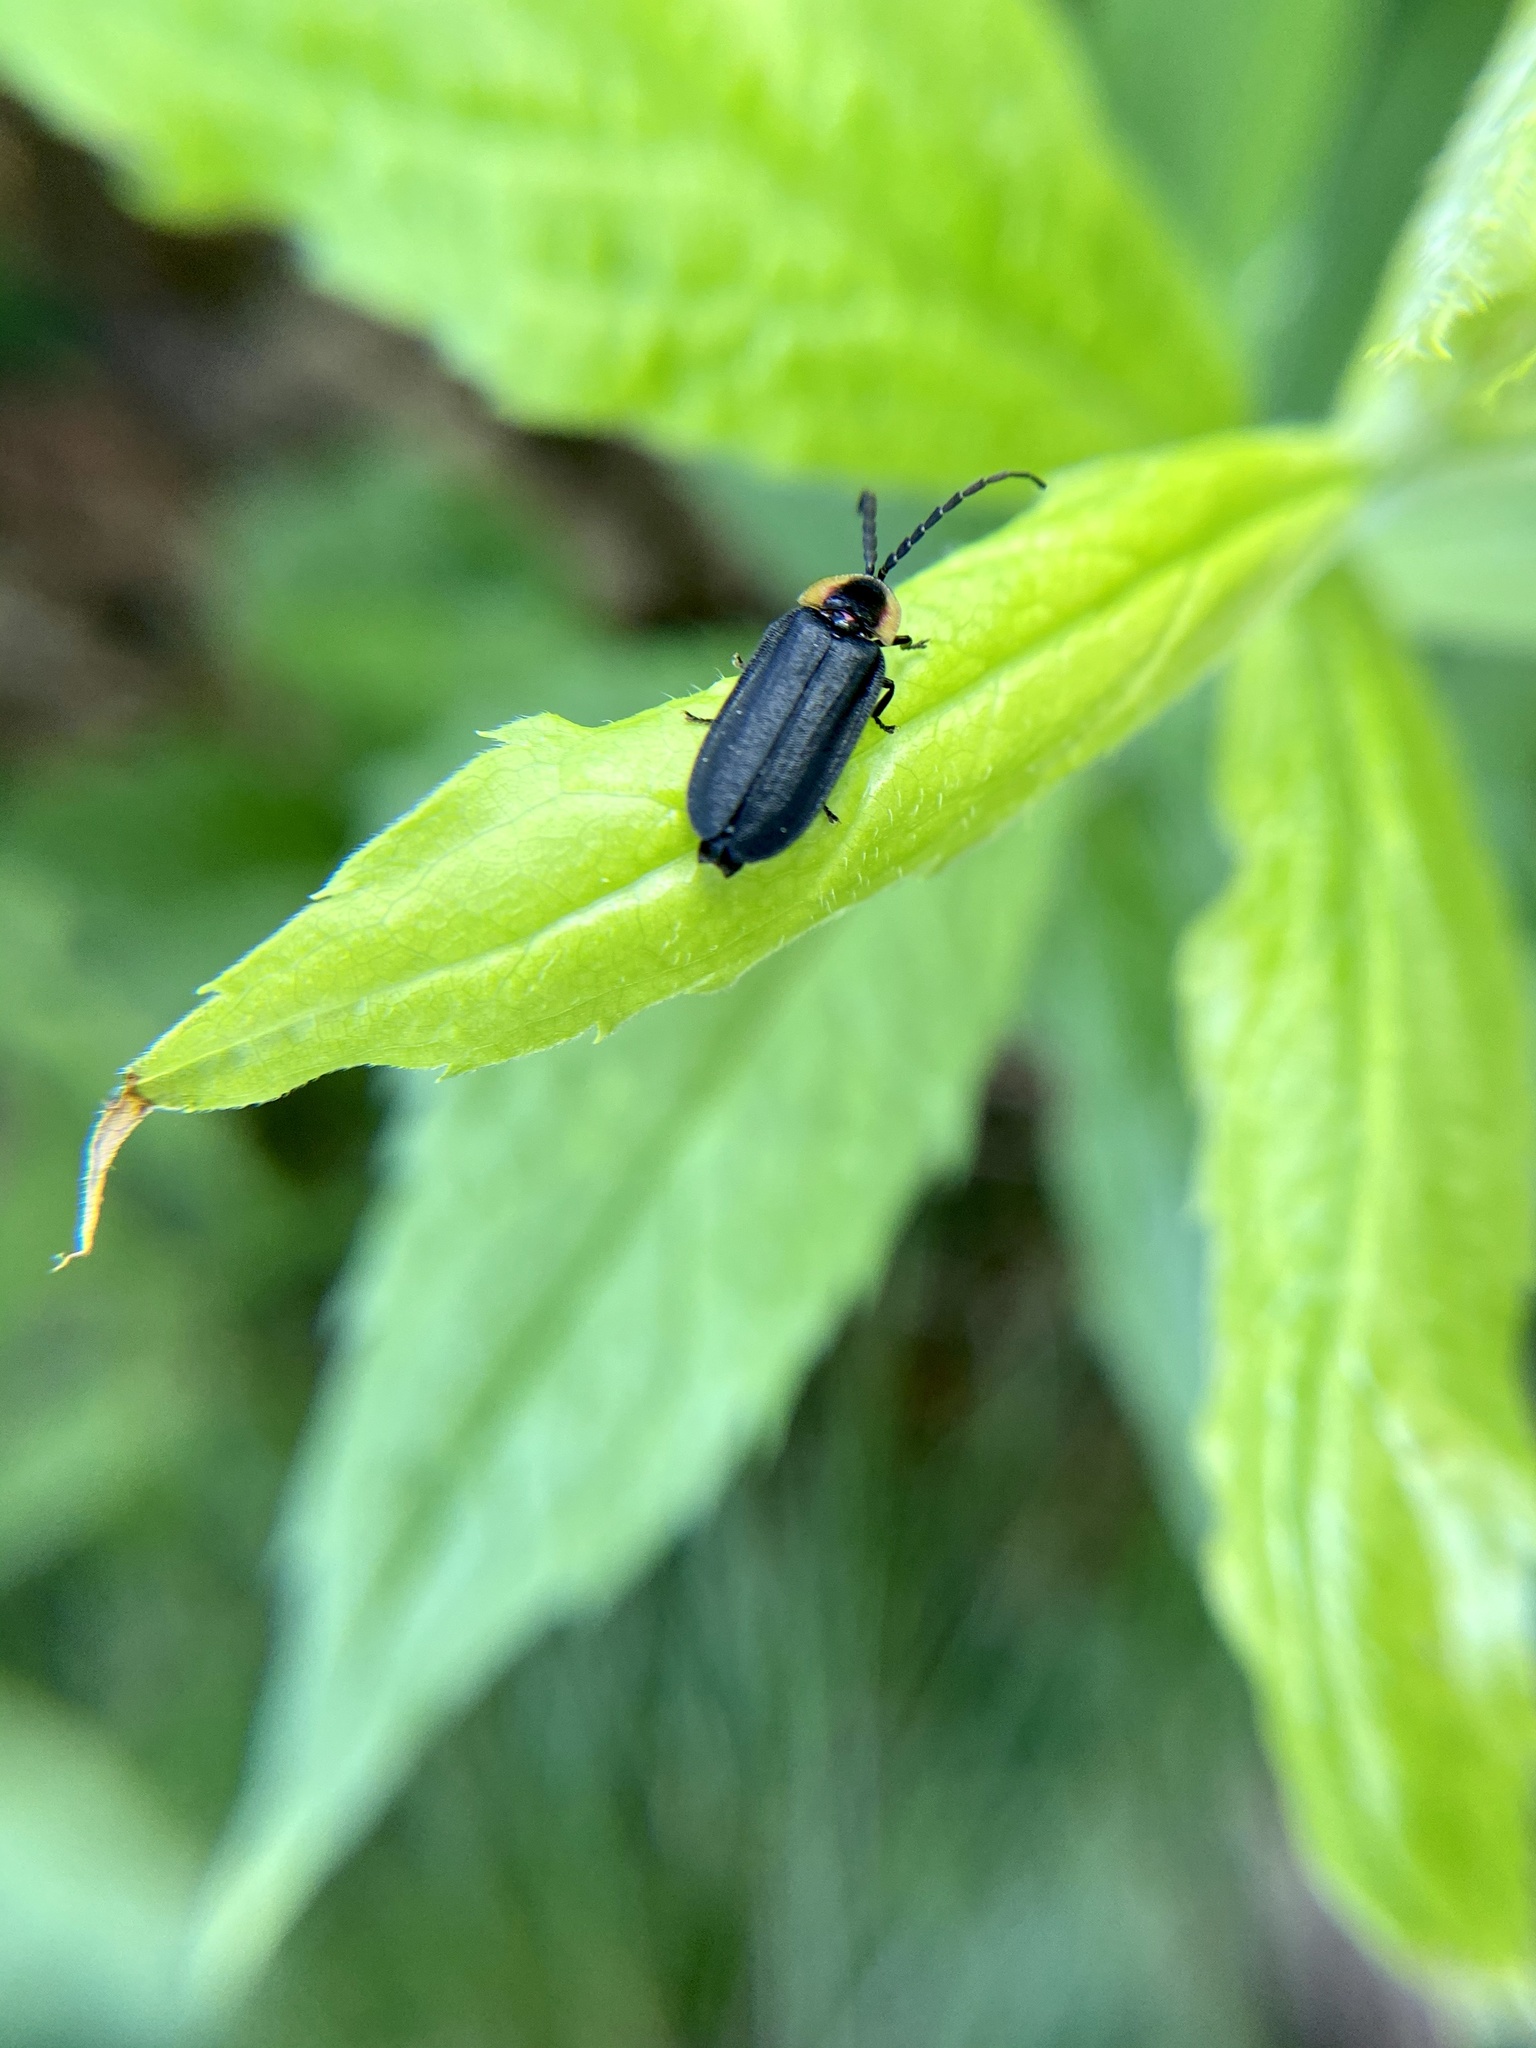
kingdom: Animalia
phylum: Arthropoda
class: Insecta
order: Coleoptera
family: Lampyridae
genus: Lucidota
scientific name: Lucidota atra
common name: Black firefly
